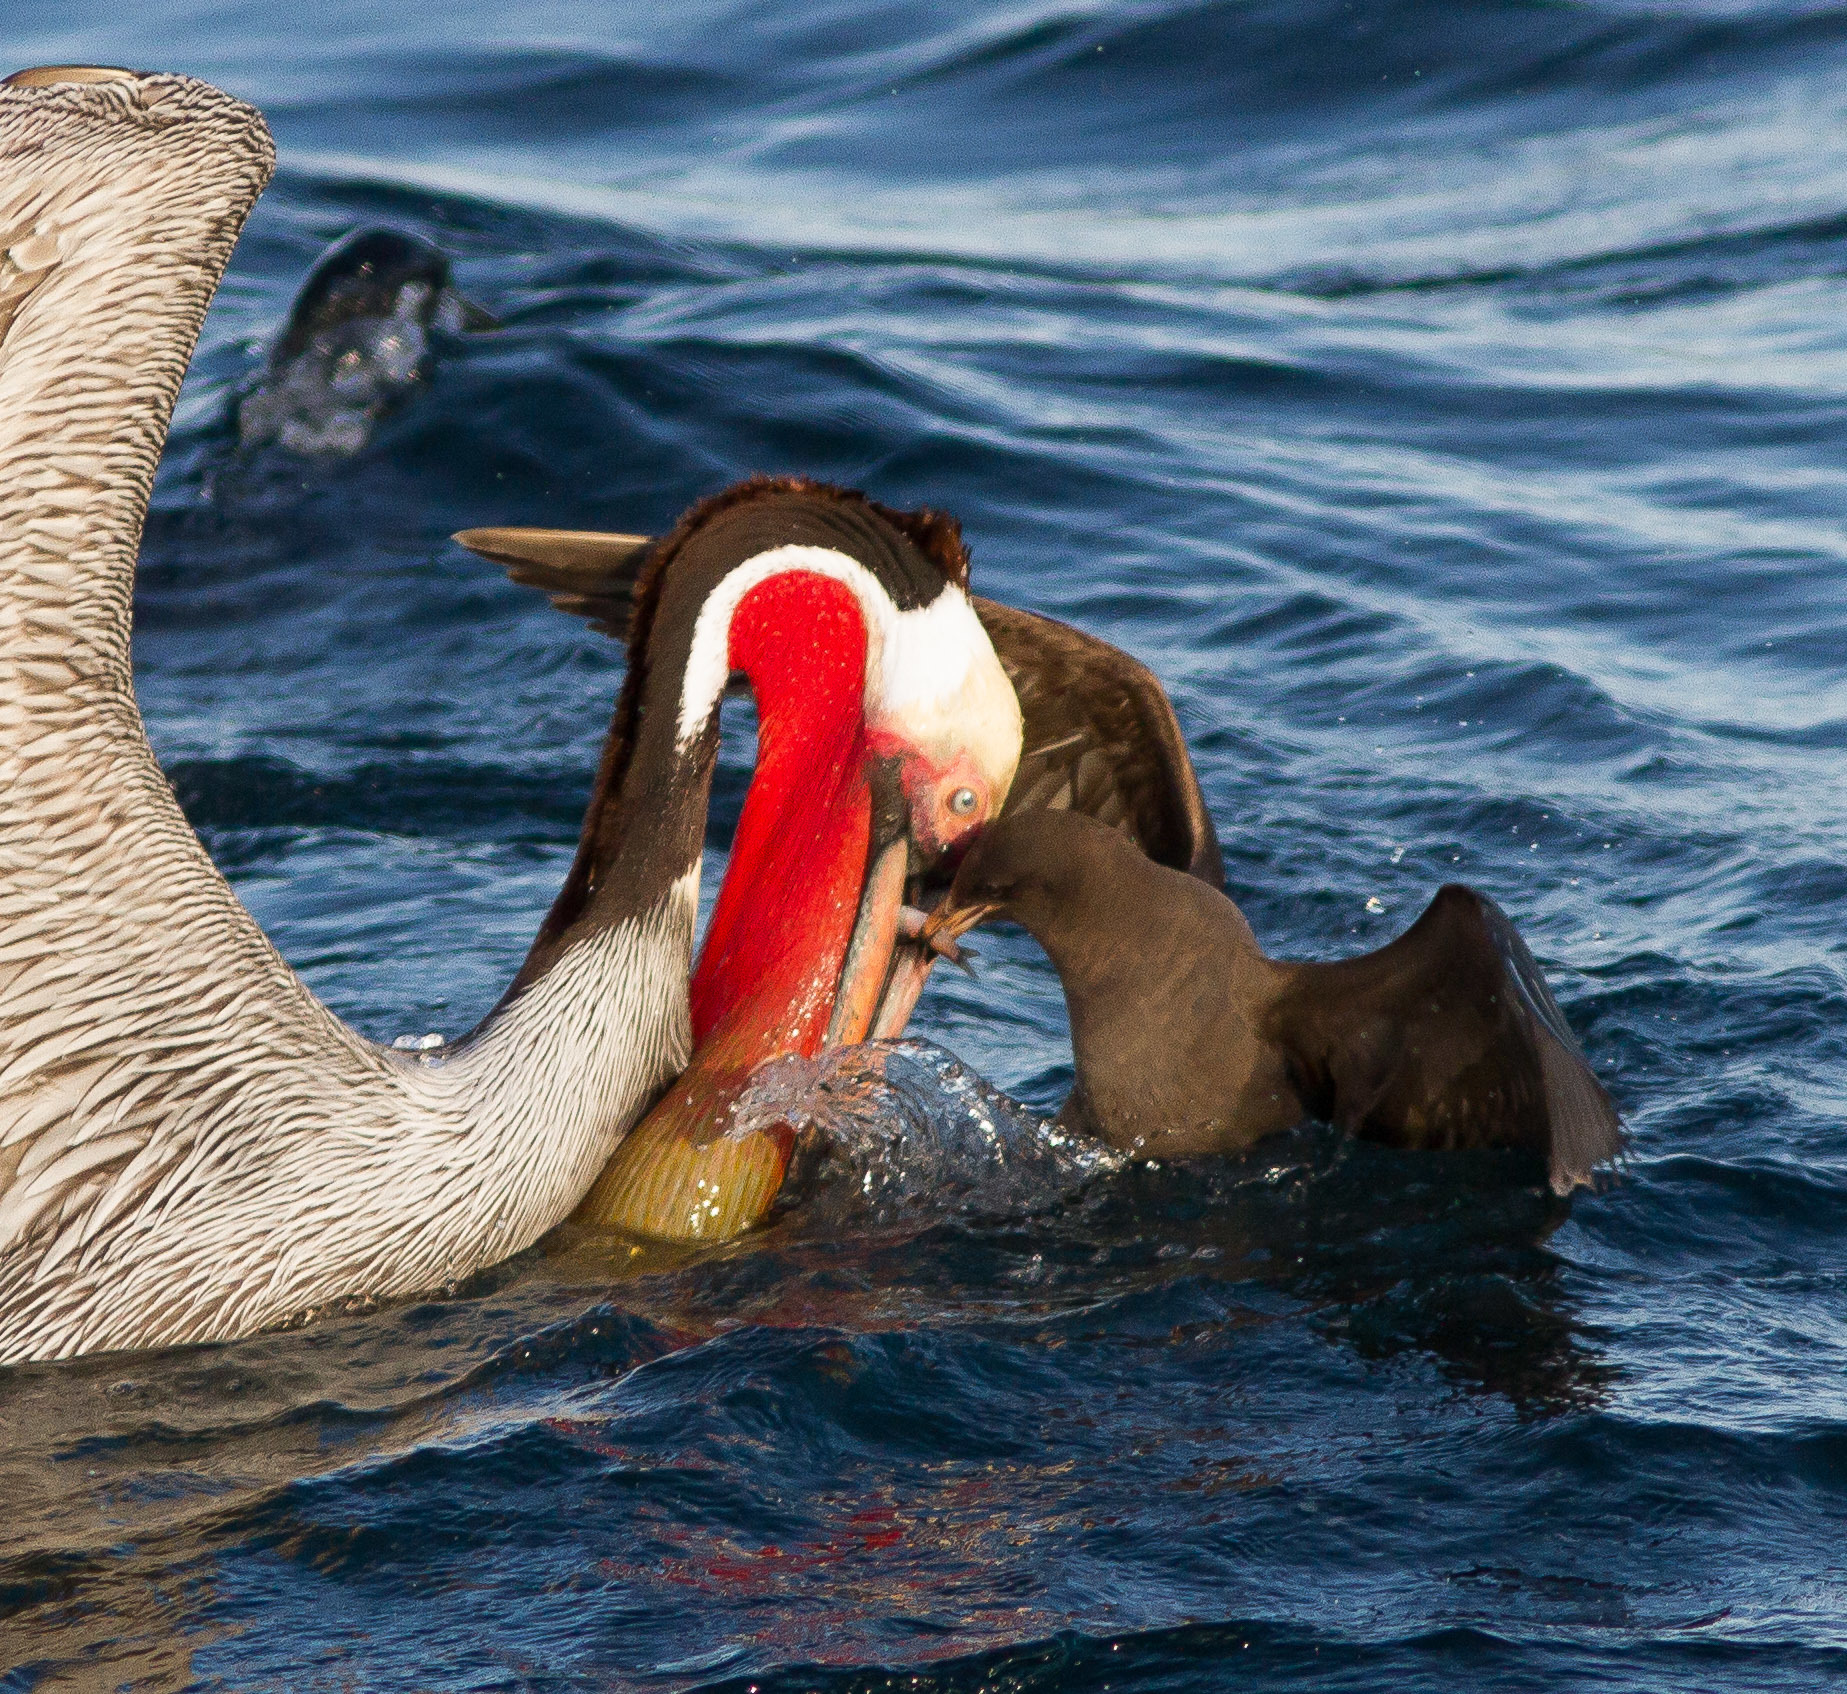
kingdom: Animalia
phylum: Chordata
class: Aves
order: Charadriiformes
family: Laridae
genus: Larus
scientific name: Larus heermanni
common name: Heermann's gull
